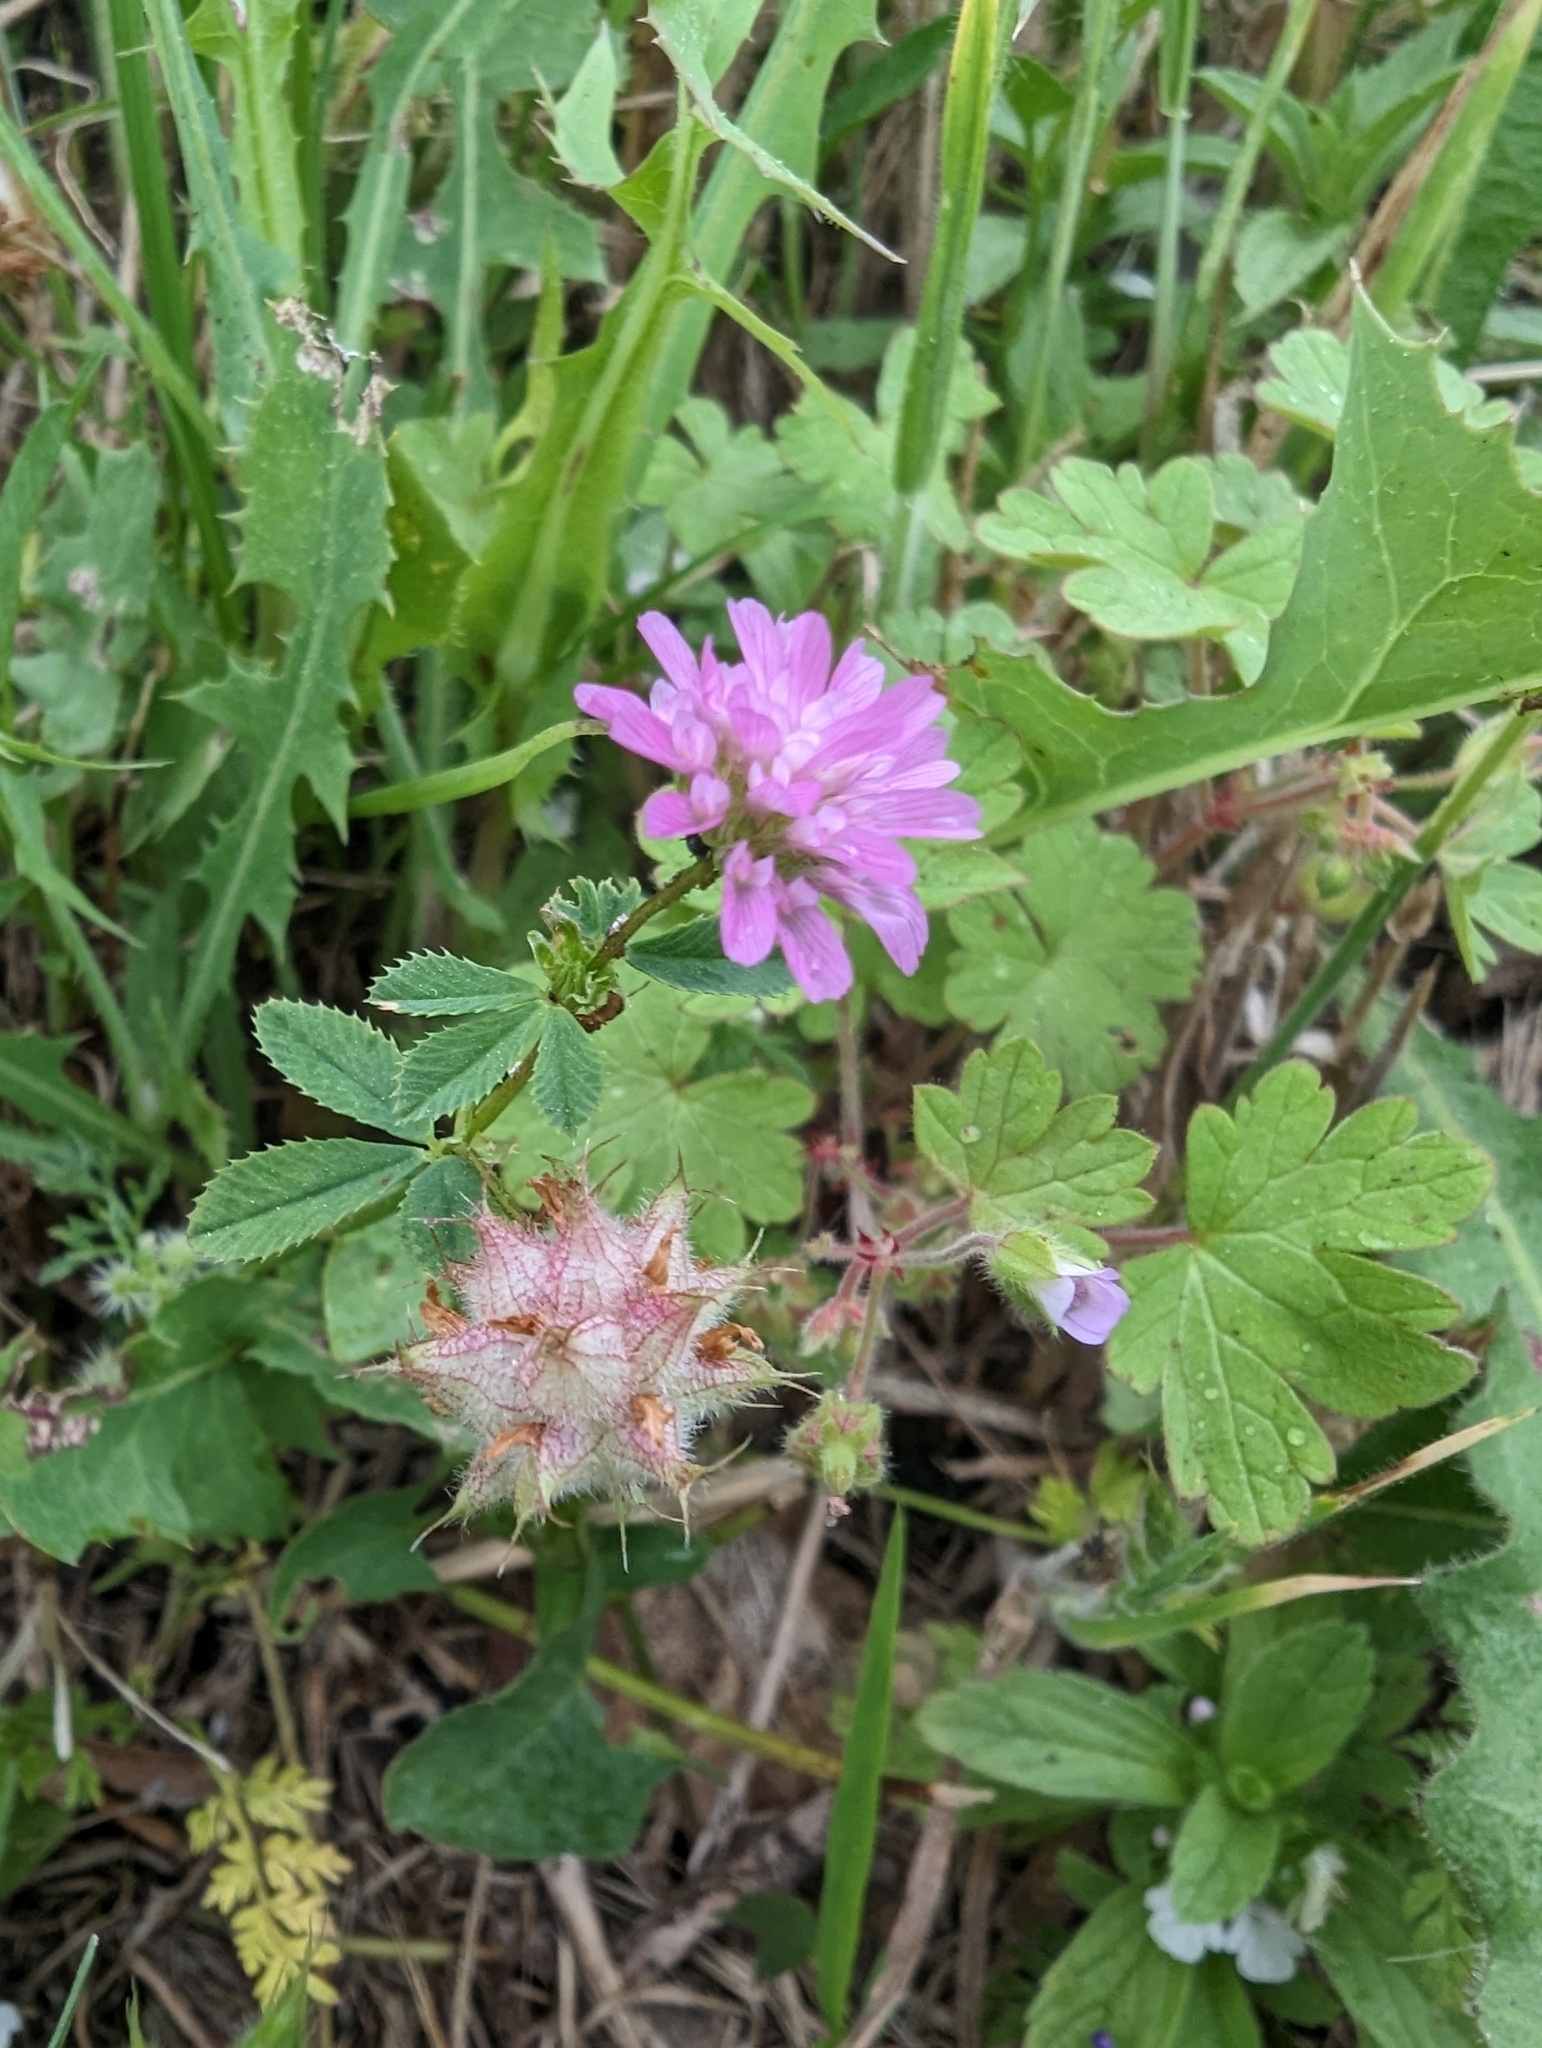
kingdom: Plantae
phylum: Tracheophyta
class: Magnoliopsida
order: Fabales
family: Fabaceae
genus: Trifolium
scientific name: Trifolium resupinatum
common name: Reversed clover
